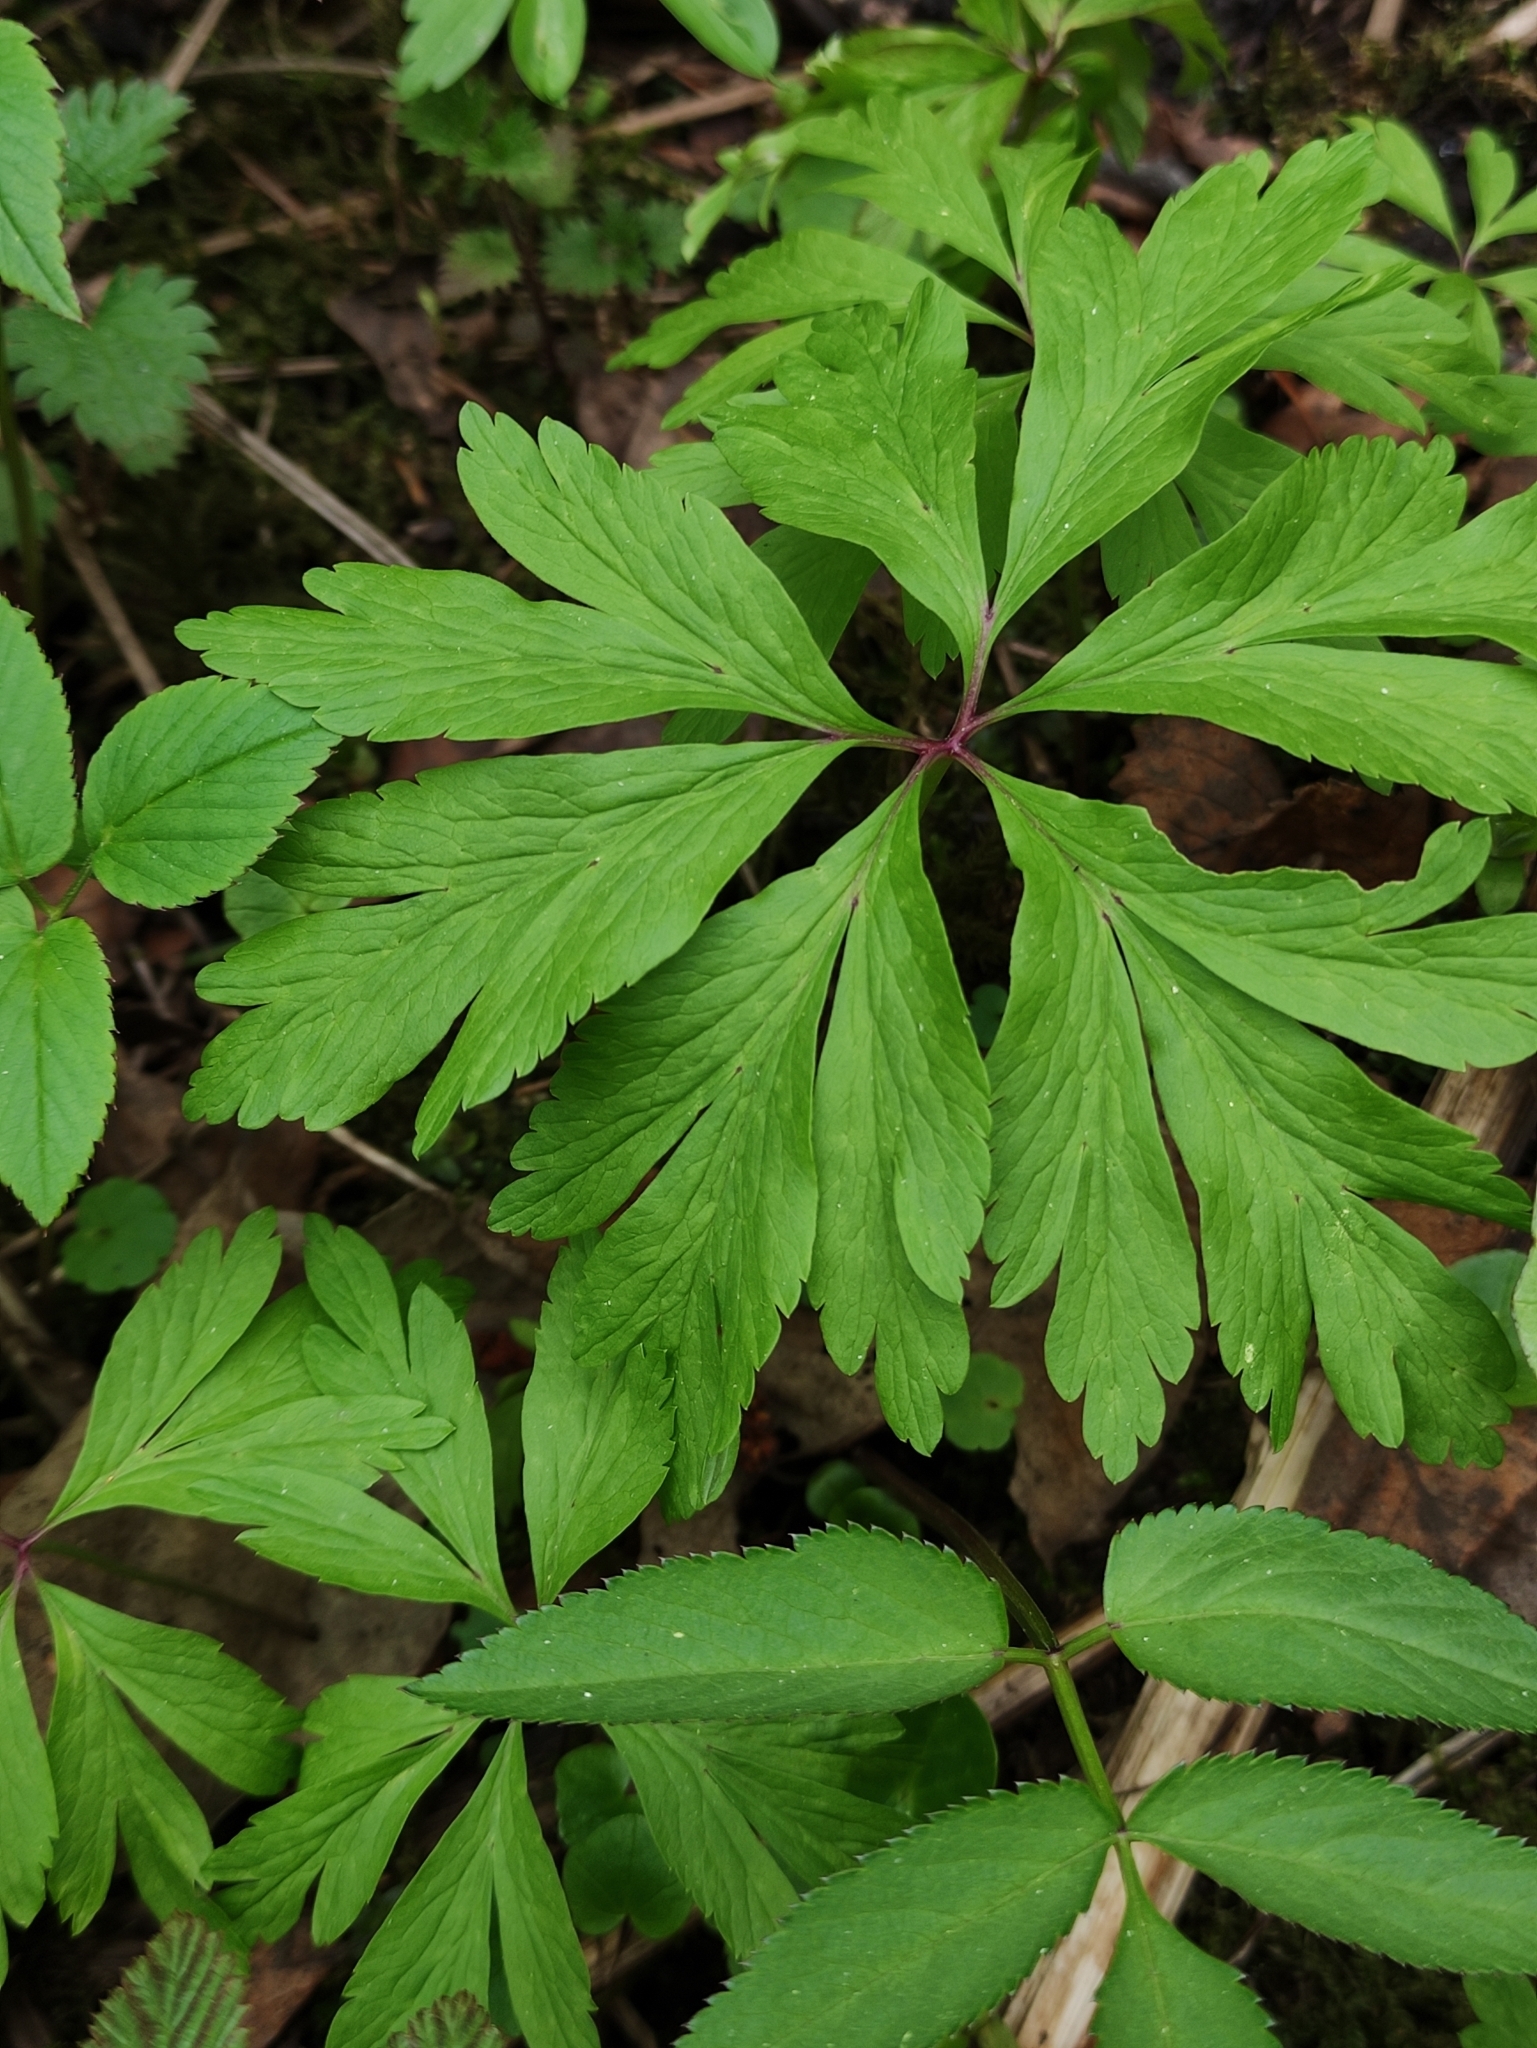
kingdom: Plantae
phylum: Tracheophyta
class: Magnoliopsida
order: Ranunculales
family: Ranunculaceae
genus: Anemone
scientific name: Anemone ranunculoides
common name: Yellow anemone
